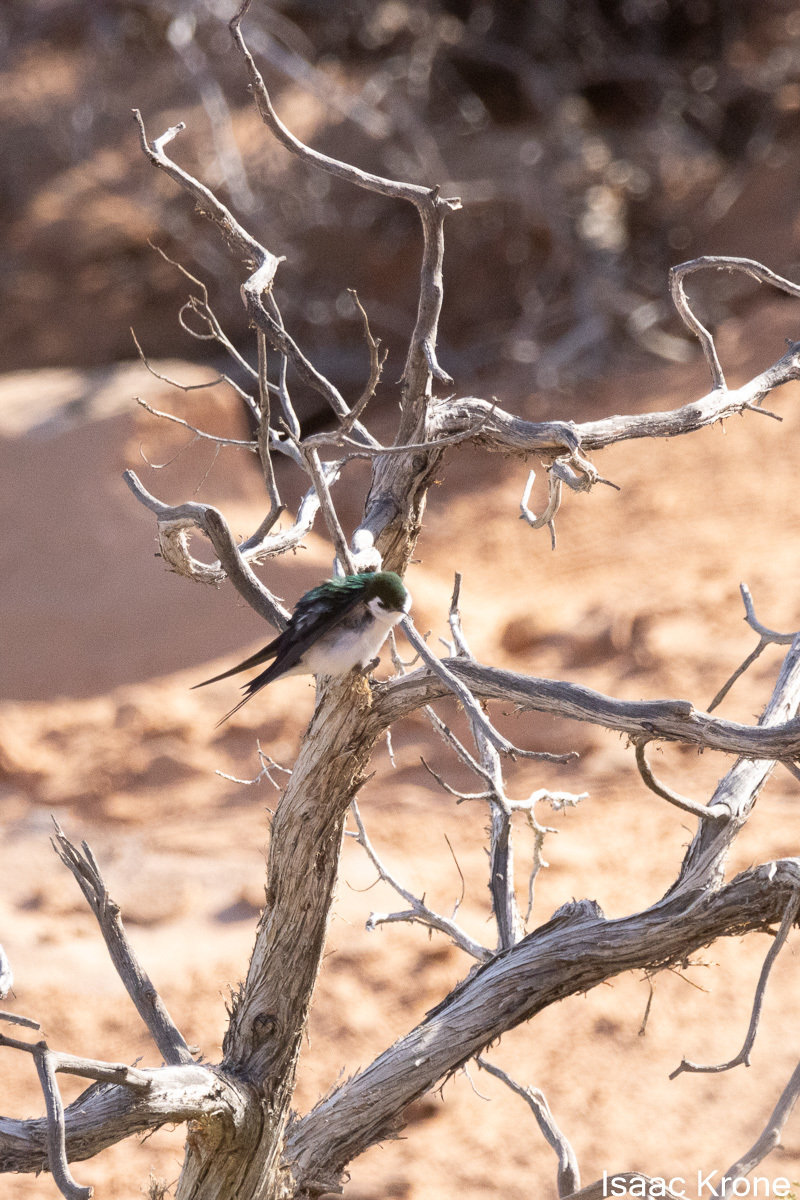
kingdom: Animalia
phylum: Chordata
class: Aves
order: Passeriformes
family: Hirundinidae
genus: Tachycineta
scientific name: Tachycineta thalassina
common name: Violet-green swallow
